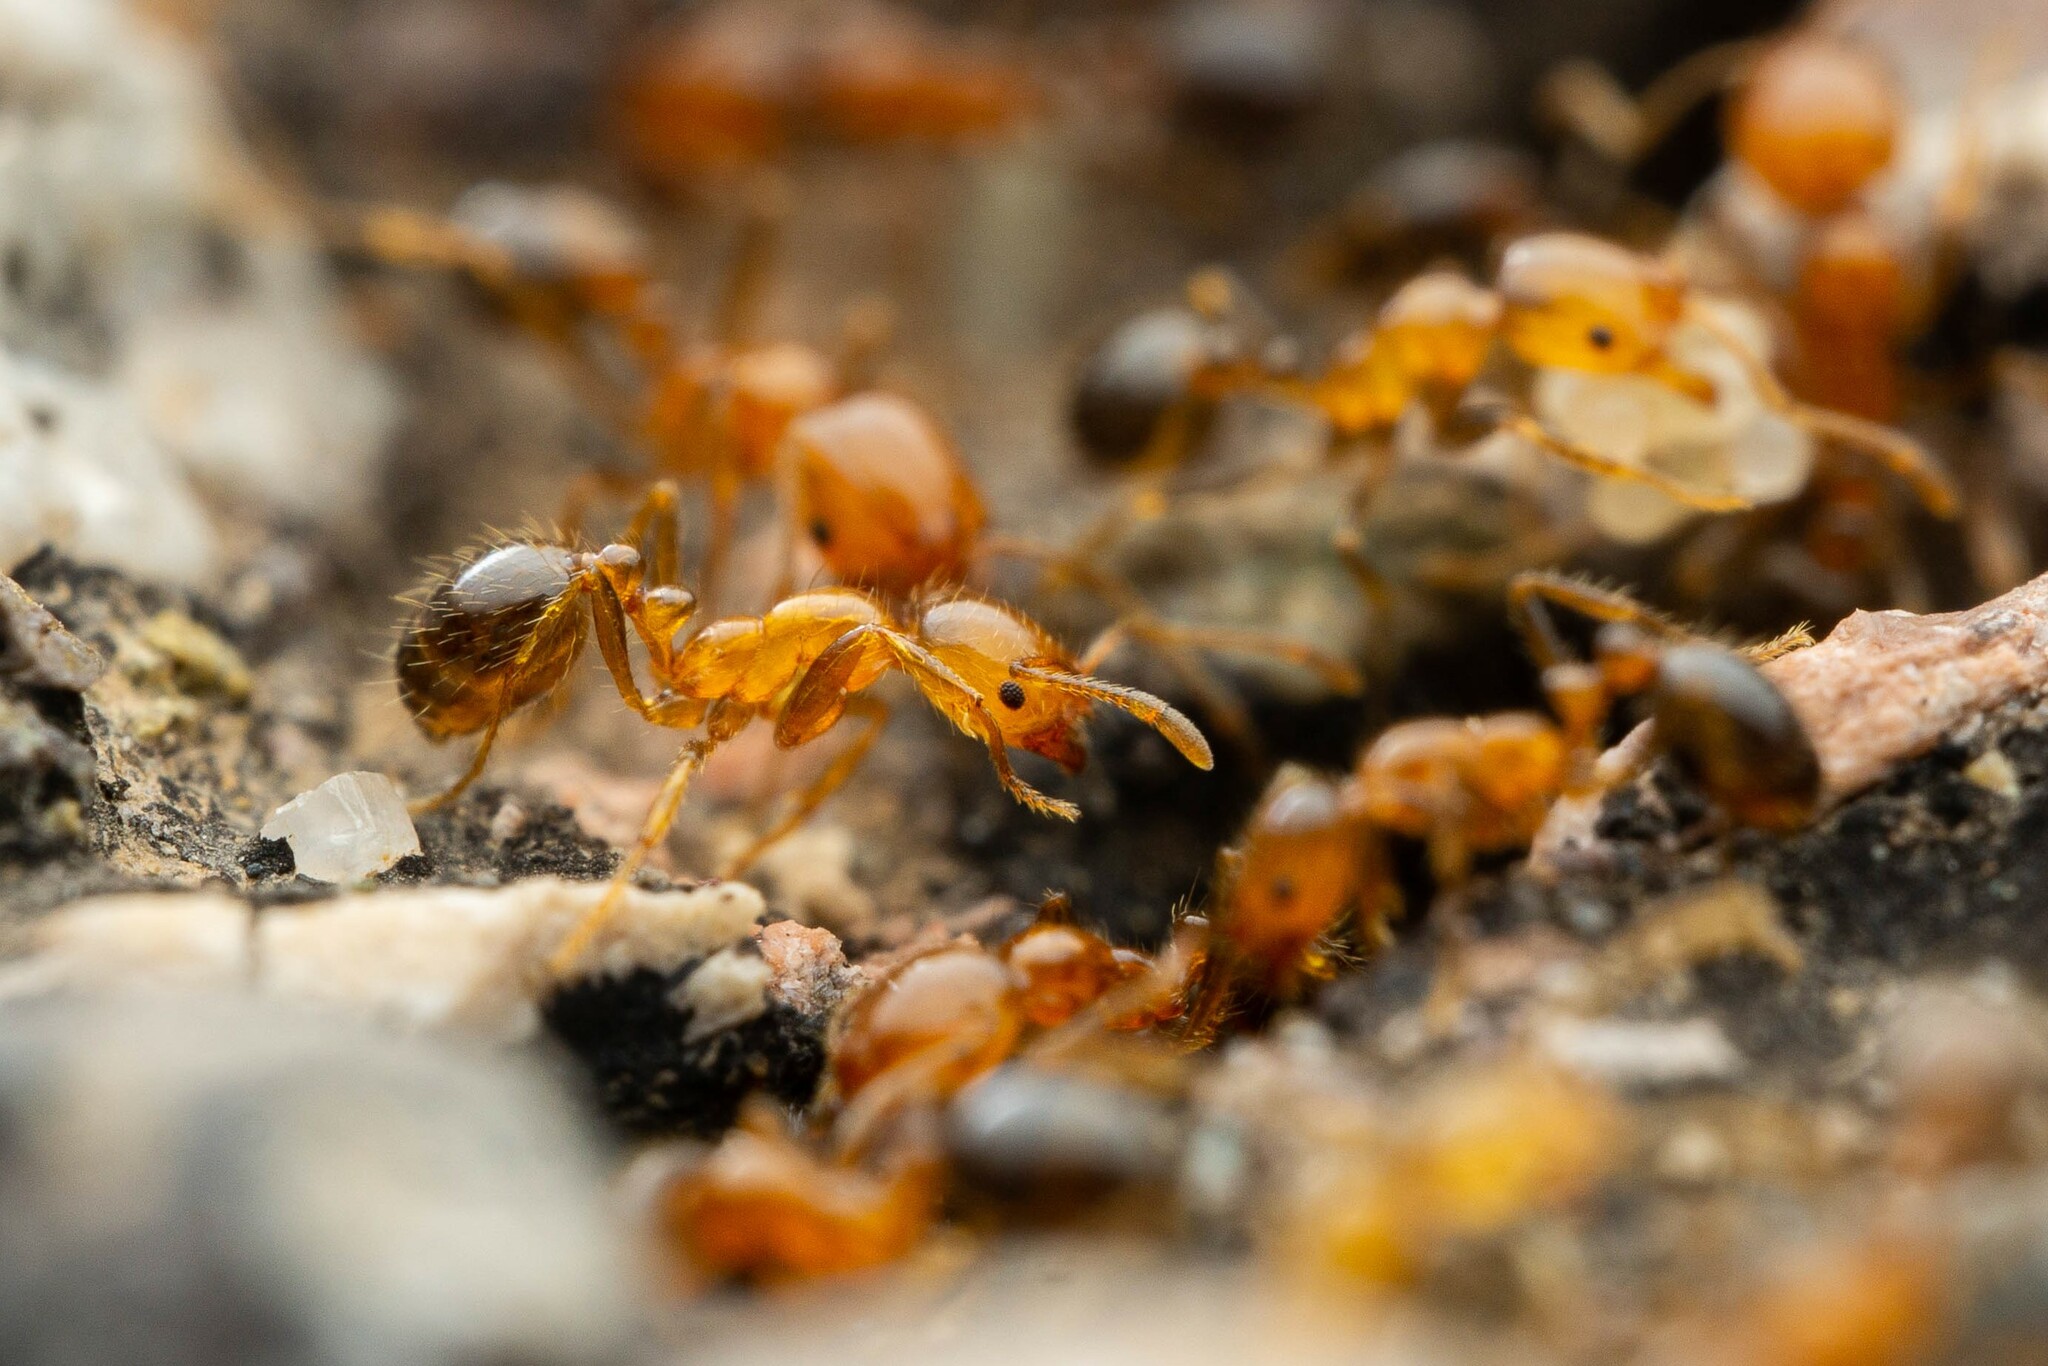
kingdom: Animalia
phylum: Arthropoda
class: Insecta
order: Hymenoptera
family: Formicidae
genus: Solenopsis
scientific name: Solenopsis xyloni
